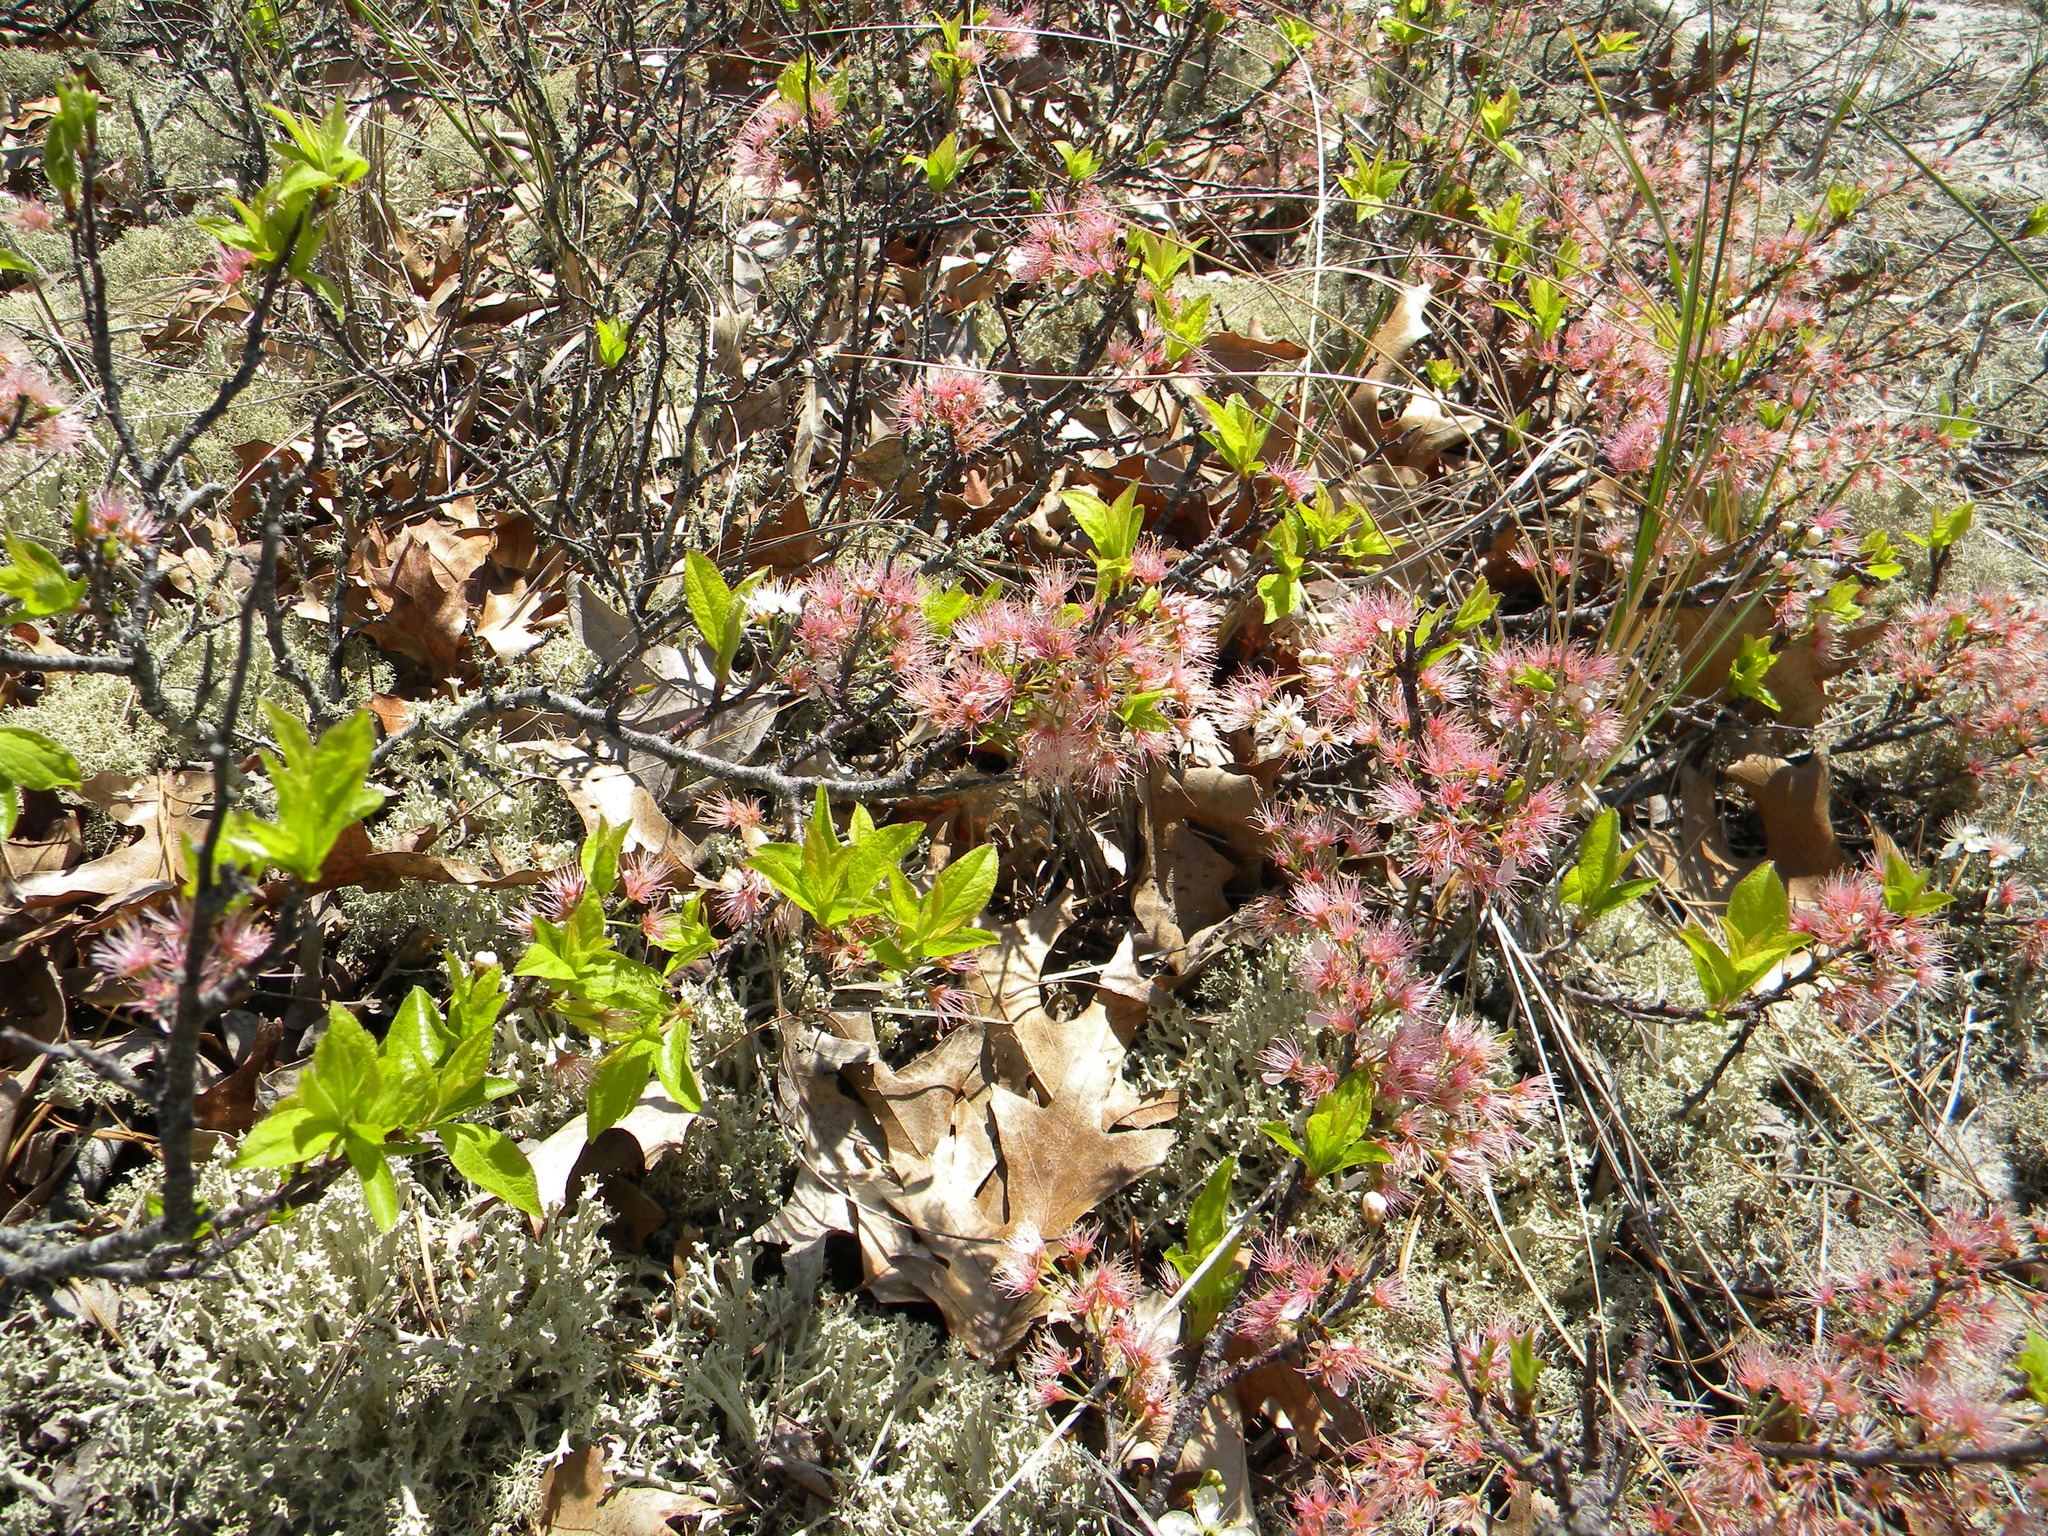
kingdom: Plantae
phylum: Tracheophyta
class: Magnoliopsida
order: Rosales
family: Rosaceae
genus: Prunus
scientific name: Prunus maritima
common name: Beach plum
